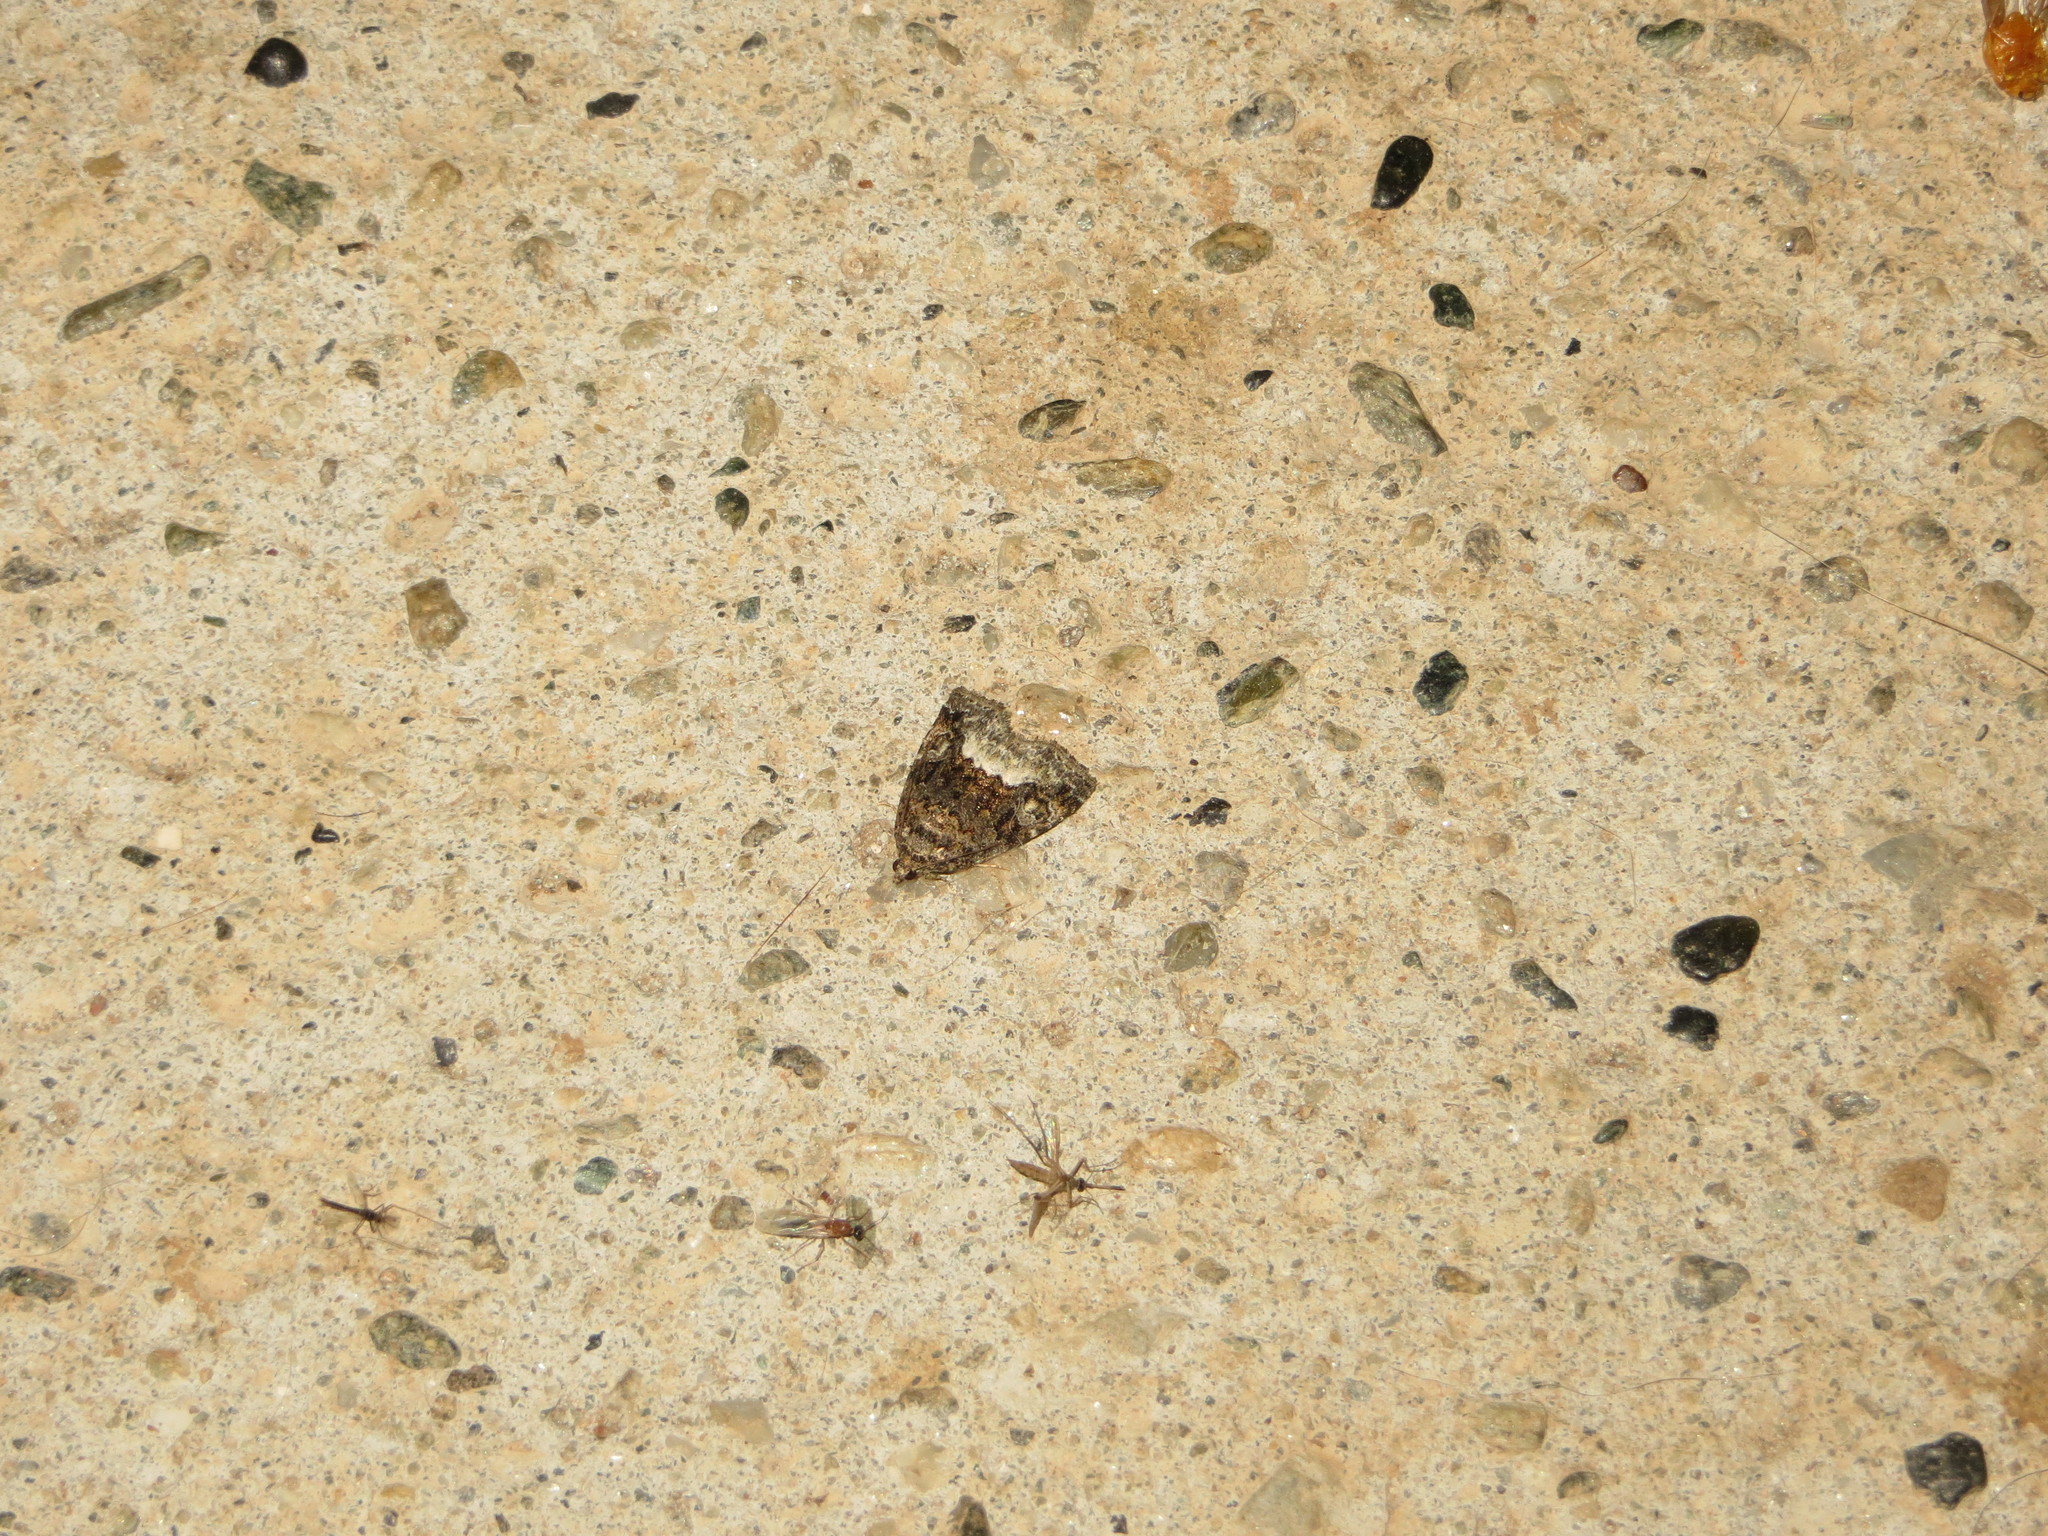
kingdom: Animalia
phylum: Arthropoda
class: Insecta
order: Lepidoptera
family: Noctuidae
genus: Deltote
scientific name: Deltote pygarga
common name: Marbled white spot
